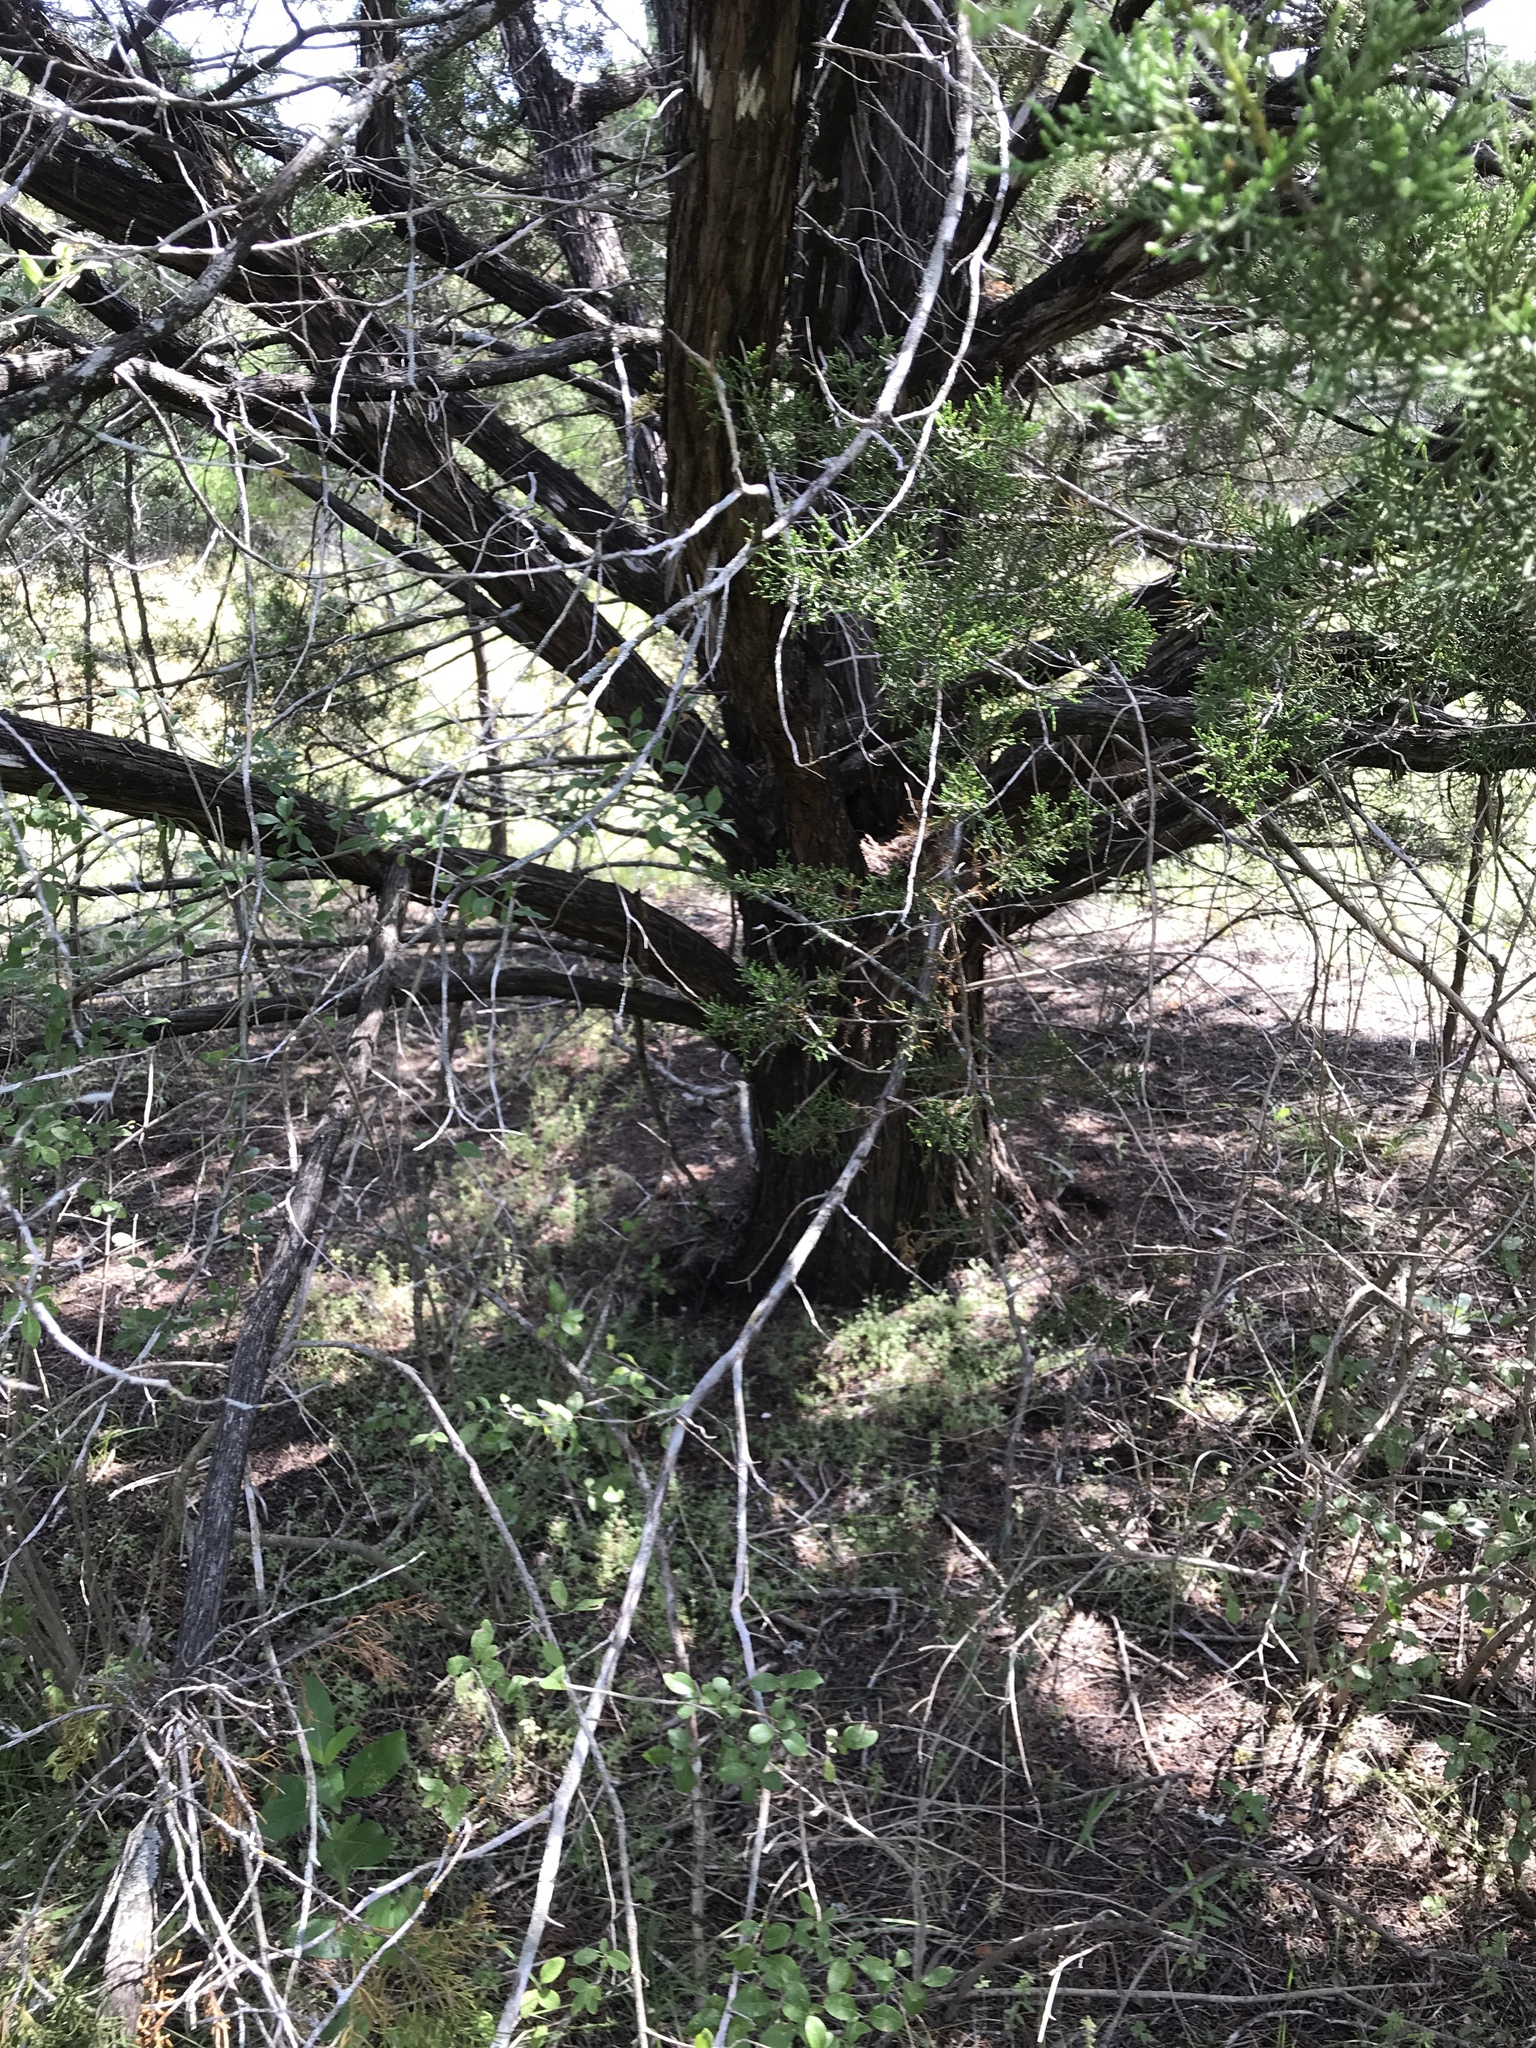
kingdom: Plantae
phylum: Tracheophyta
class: Pinopsida
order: Pinales
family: Cupressaceae
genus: Juniperus
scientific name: Juniperus ashei
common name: Mexican juniper
